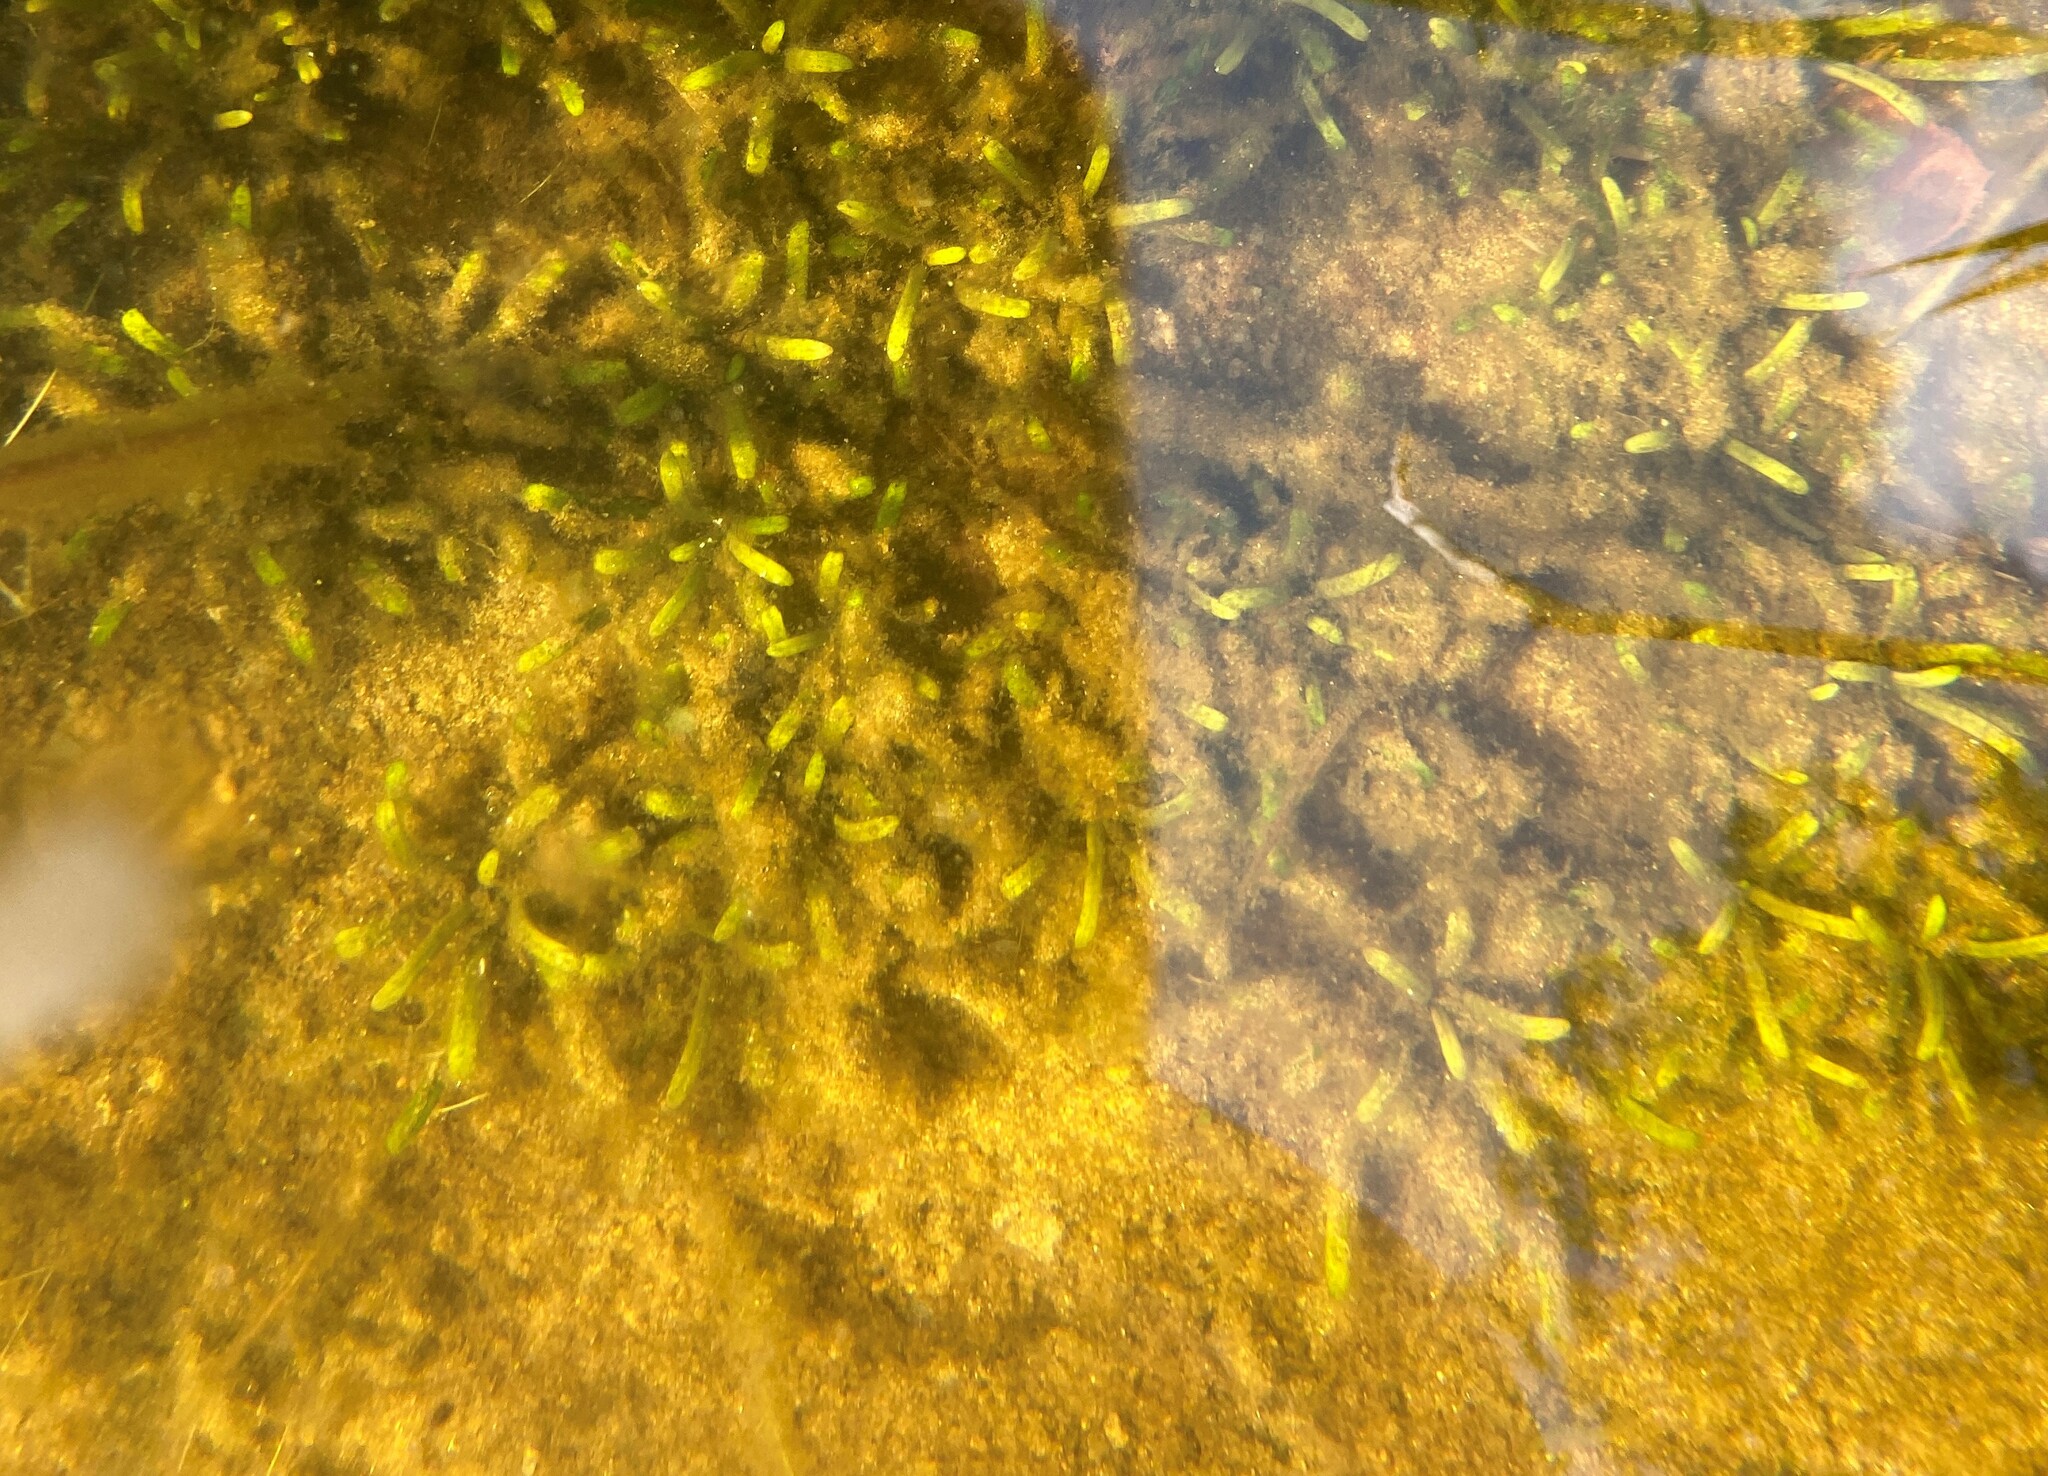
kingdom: Plantae
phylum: Tracheophyta
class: Magnoliopsida
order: Asterales
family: Campanulaceae
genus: Lobelia
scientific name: Lobelia dortmanna
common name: Water lobelia
